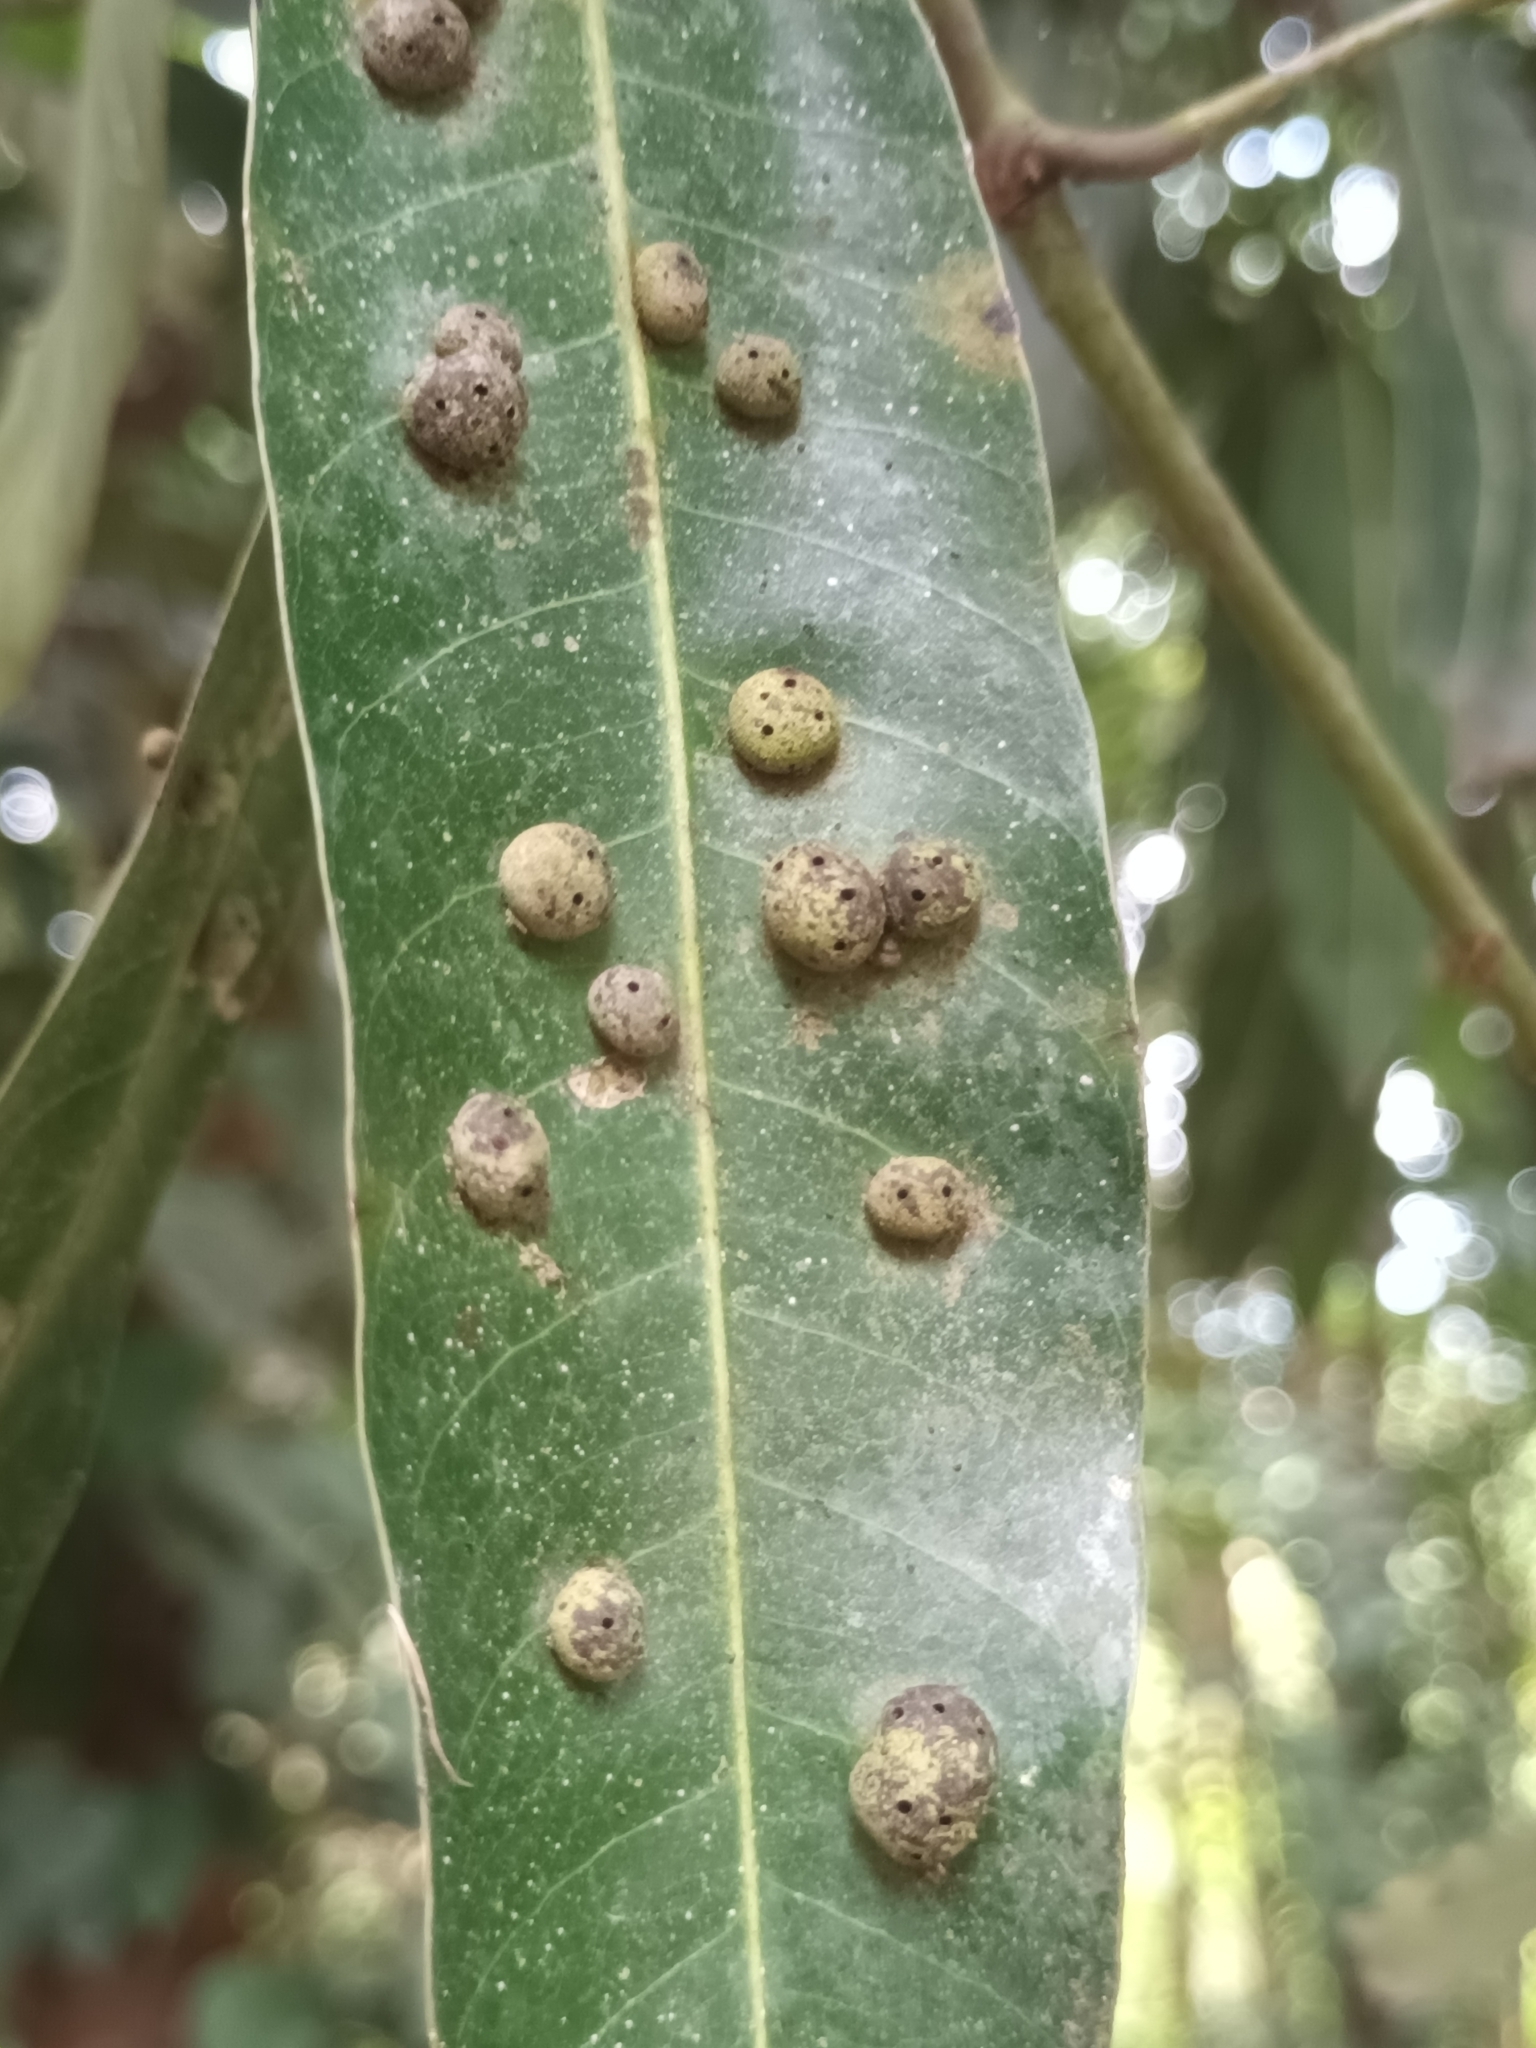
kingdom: Animalia
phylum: Arthropoda
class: Insecta
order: Diptera
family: Cecidomyiidae
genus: Procontarinia
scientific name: Procontarinia mangiferae
